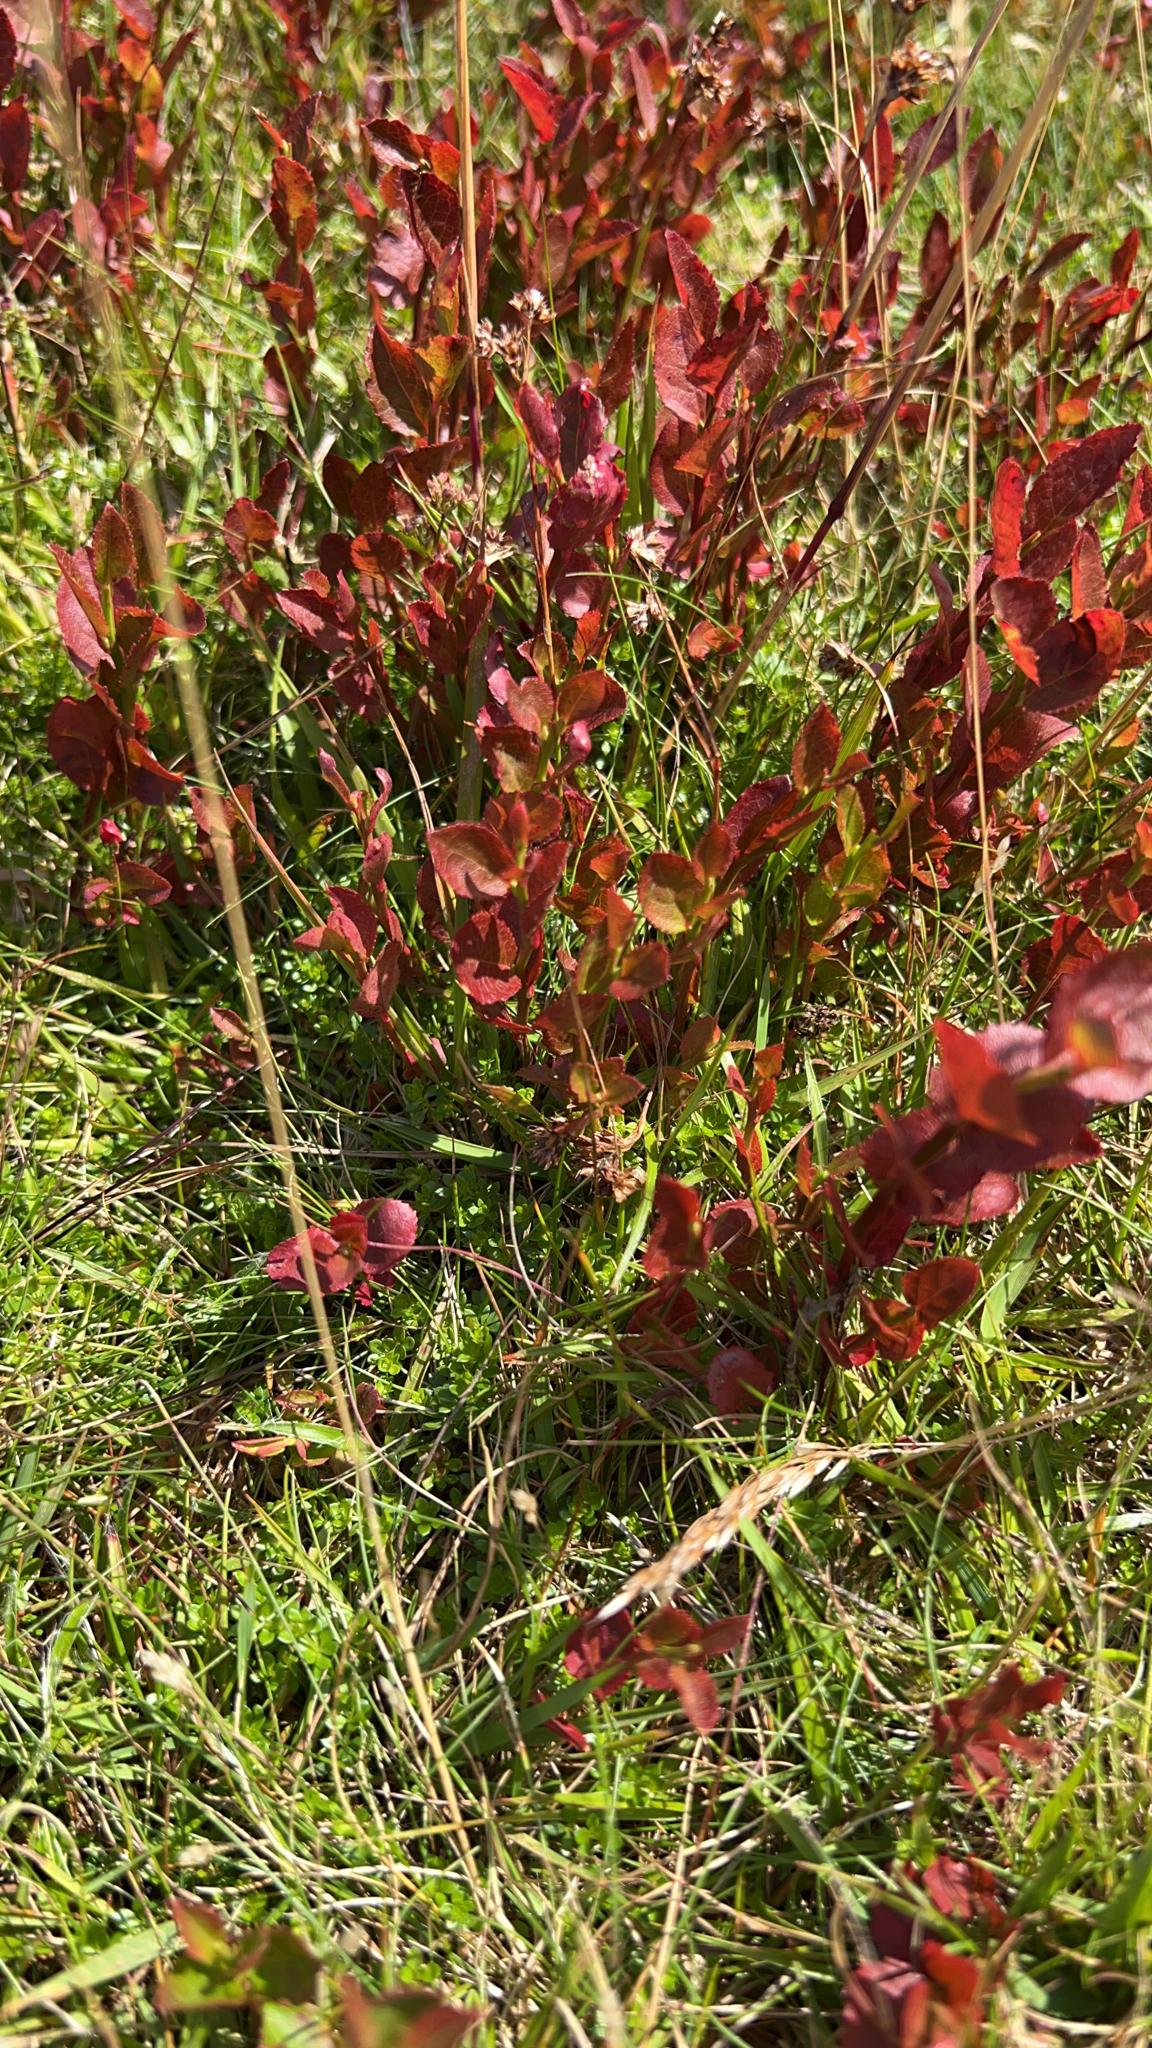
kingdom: Plantae
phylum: Tracheophyta
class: Magnoliopsida
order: Ericales
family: Ericaceae
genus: Vaccinium
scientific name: Vaccinium myrtillus
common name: Bilberry
